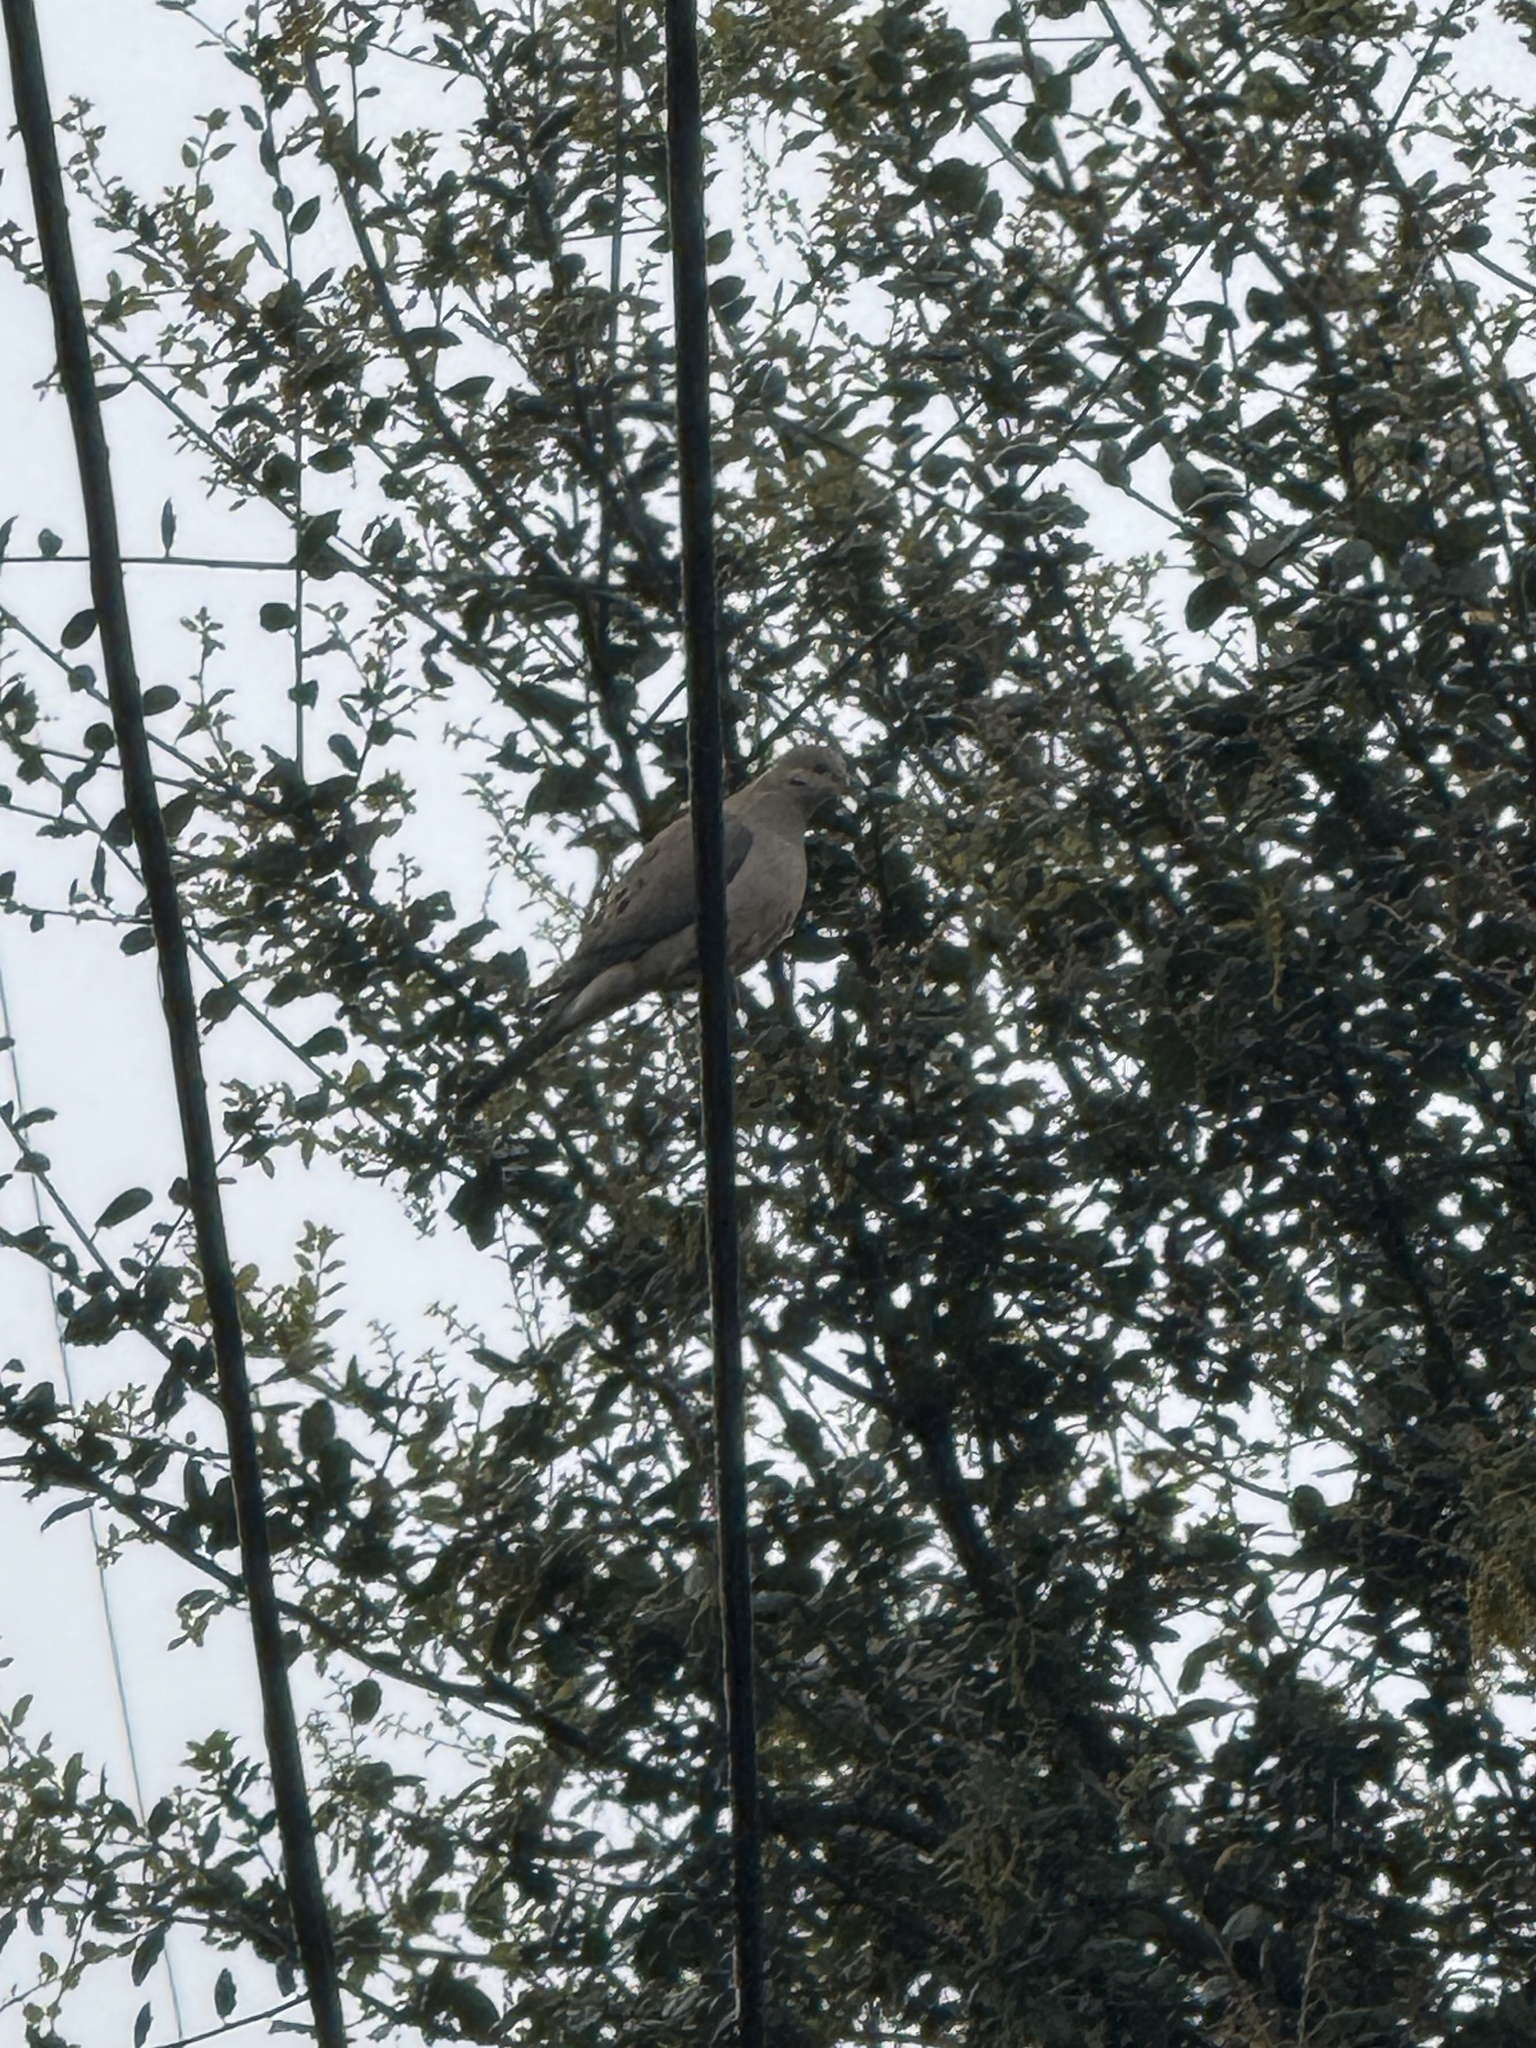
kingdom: Animalia
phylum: Chordata
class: Aves
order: Columbiformes
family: Columbidae
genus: Zenaida
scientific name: Zenaida macroura
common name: Mourning dove
